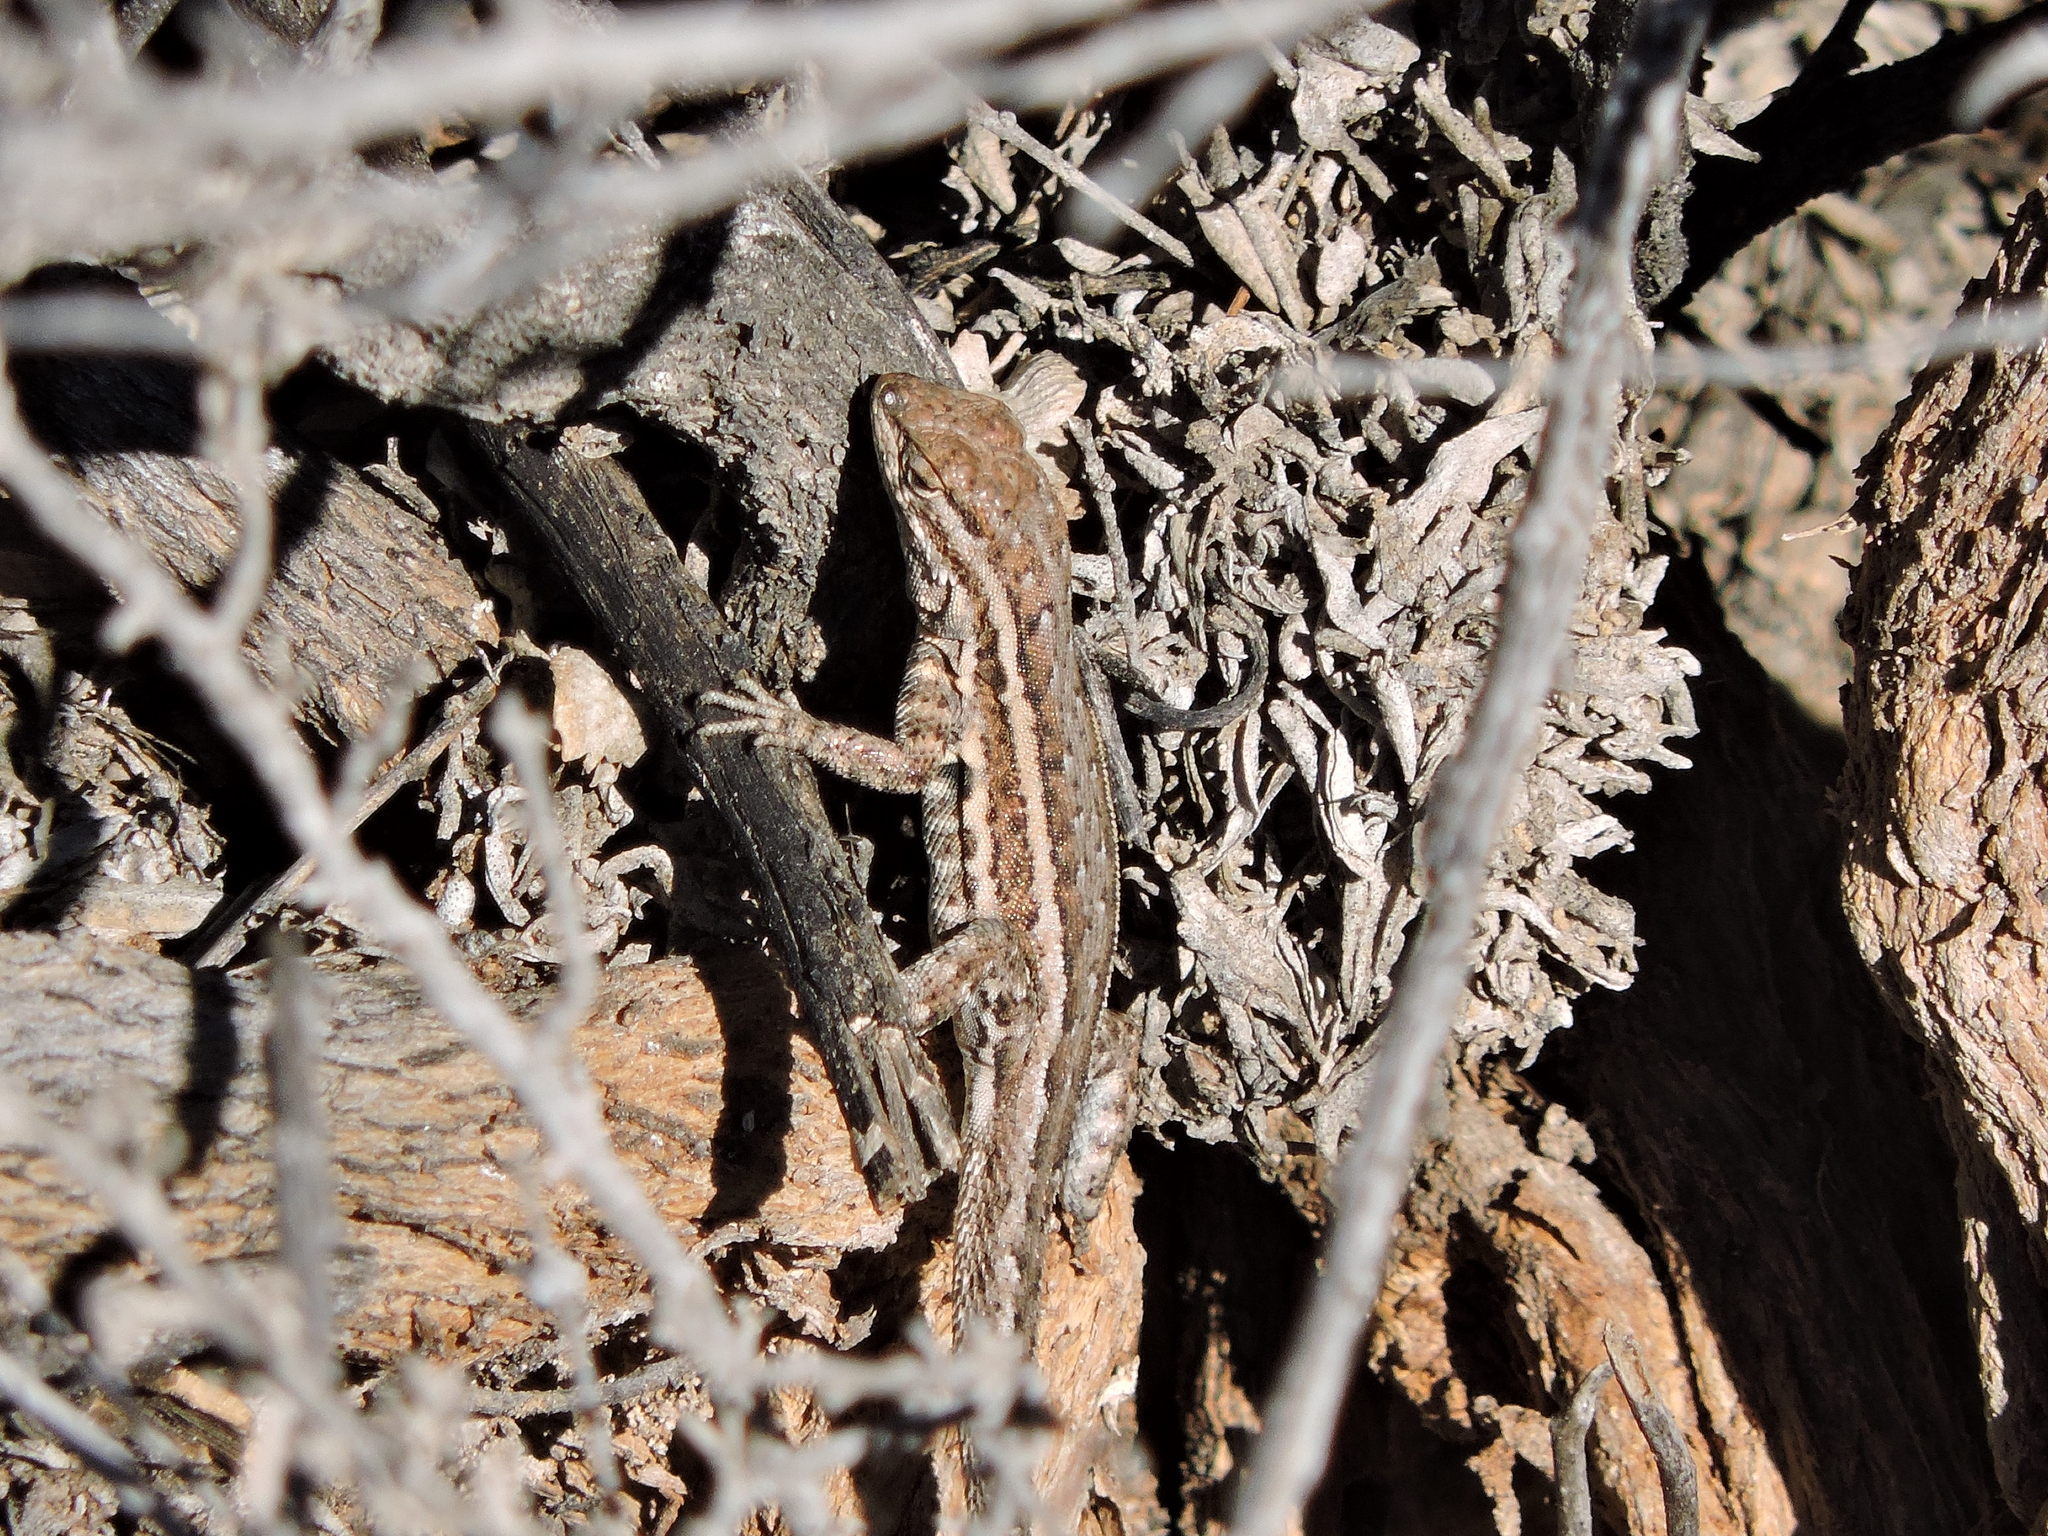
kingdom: Animalia
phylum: Chordata
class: Squamata
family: Phrynosomatidae
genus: Uta
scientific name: Uta stansburiana
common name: Side-blotched lizard
